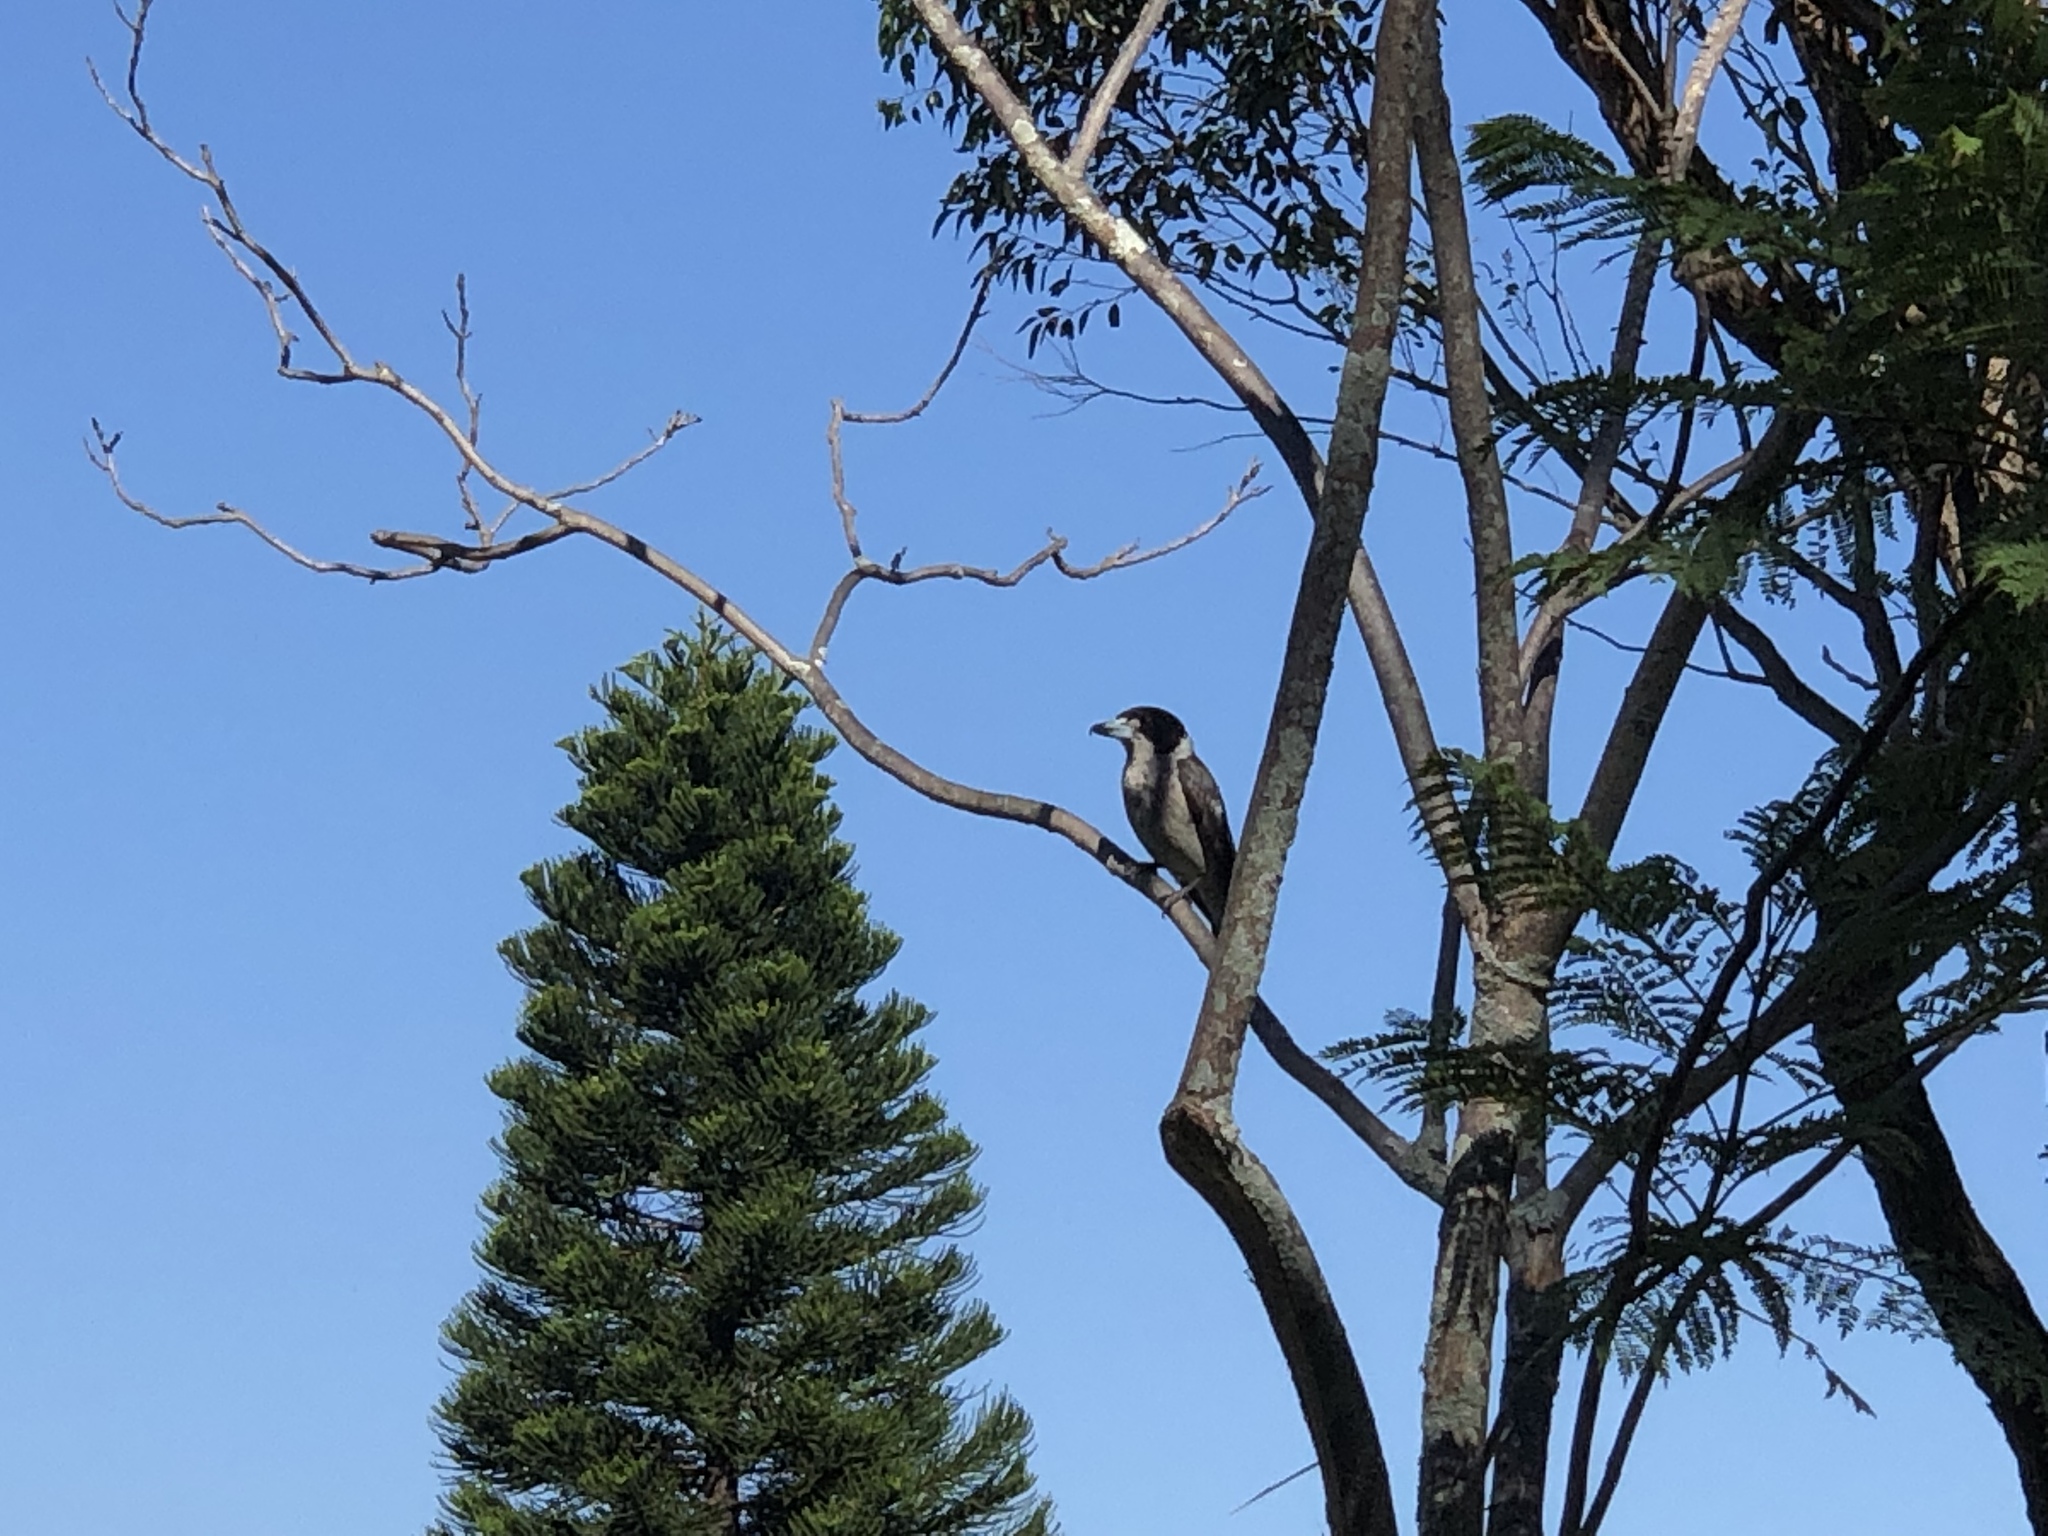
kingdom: Animalia
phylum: Chordata
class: Aves
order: Passeriformes
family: Cracticidae
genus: Cracticus
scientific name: Cracticus torquatus
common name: Grey butcherbird
